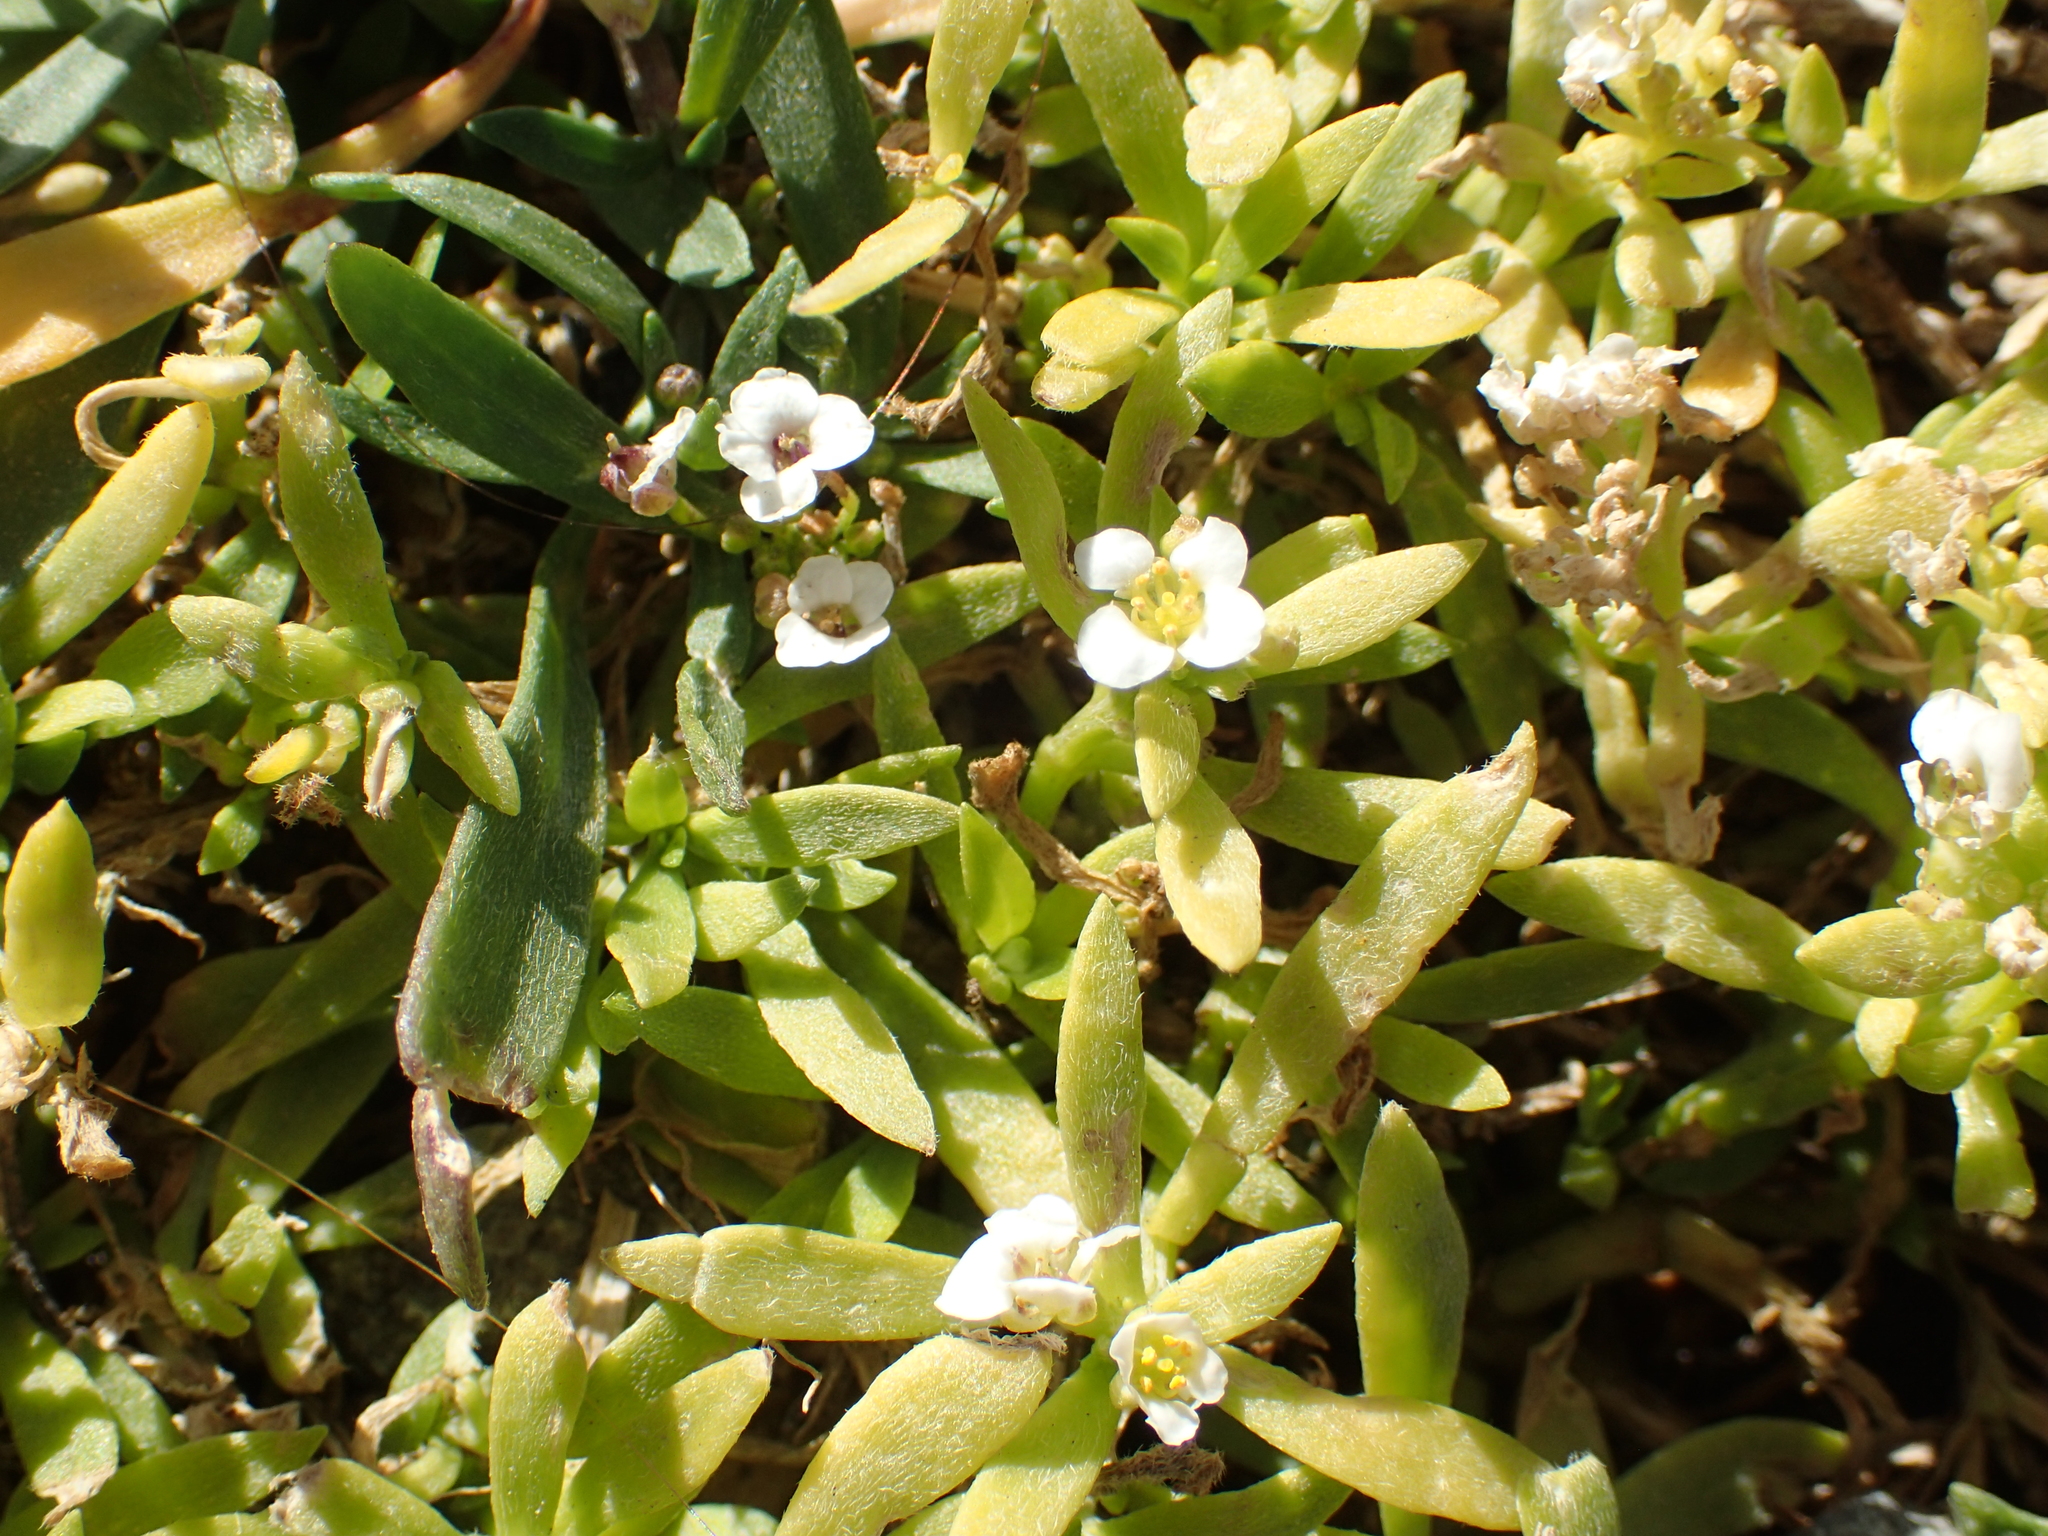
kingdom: Plantae
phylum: Tracheophyta
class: Magnoliopsida
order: Brassicales
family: Brassicaceae
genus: Lobularia
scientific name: Lobularia maritima
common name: Sweet alison
